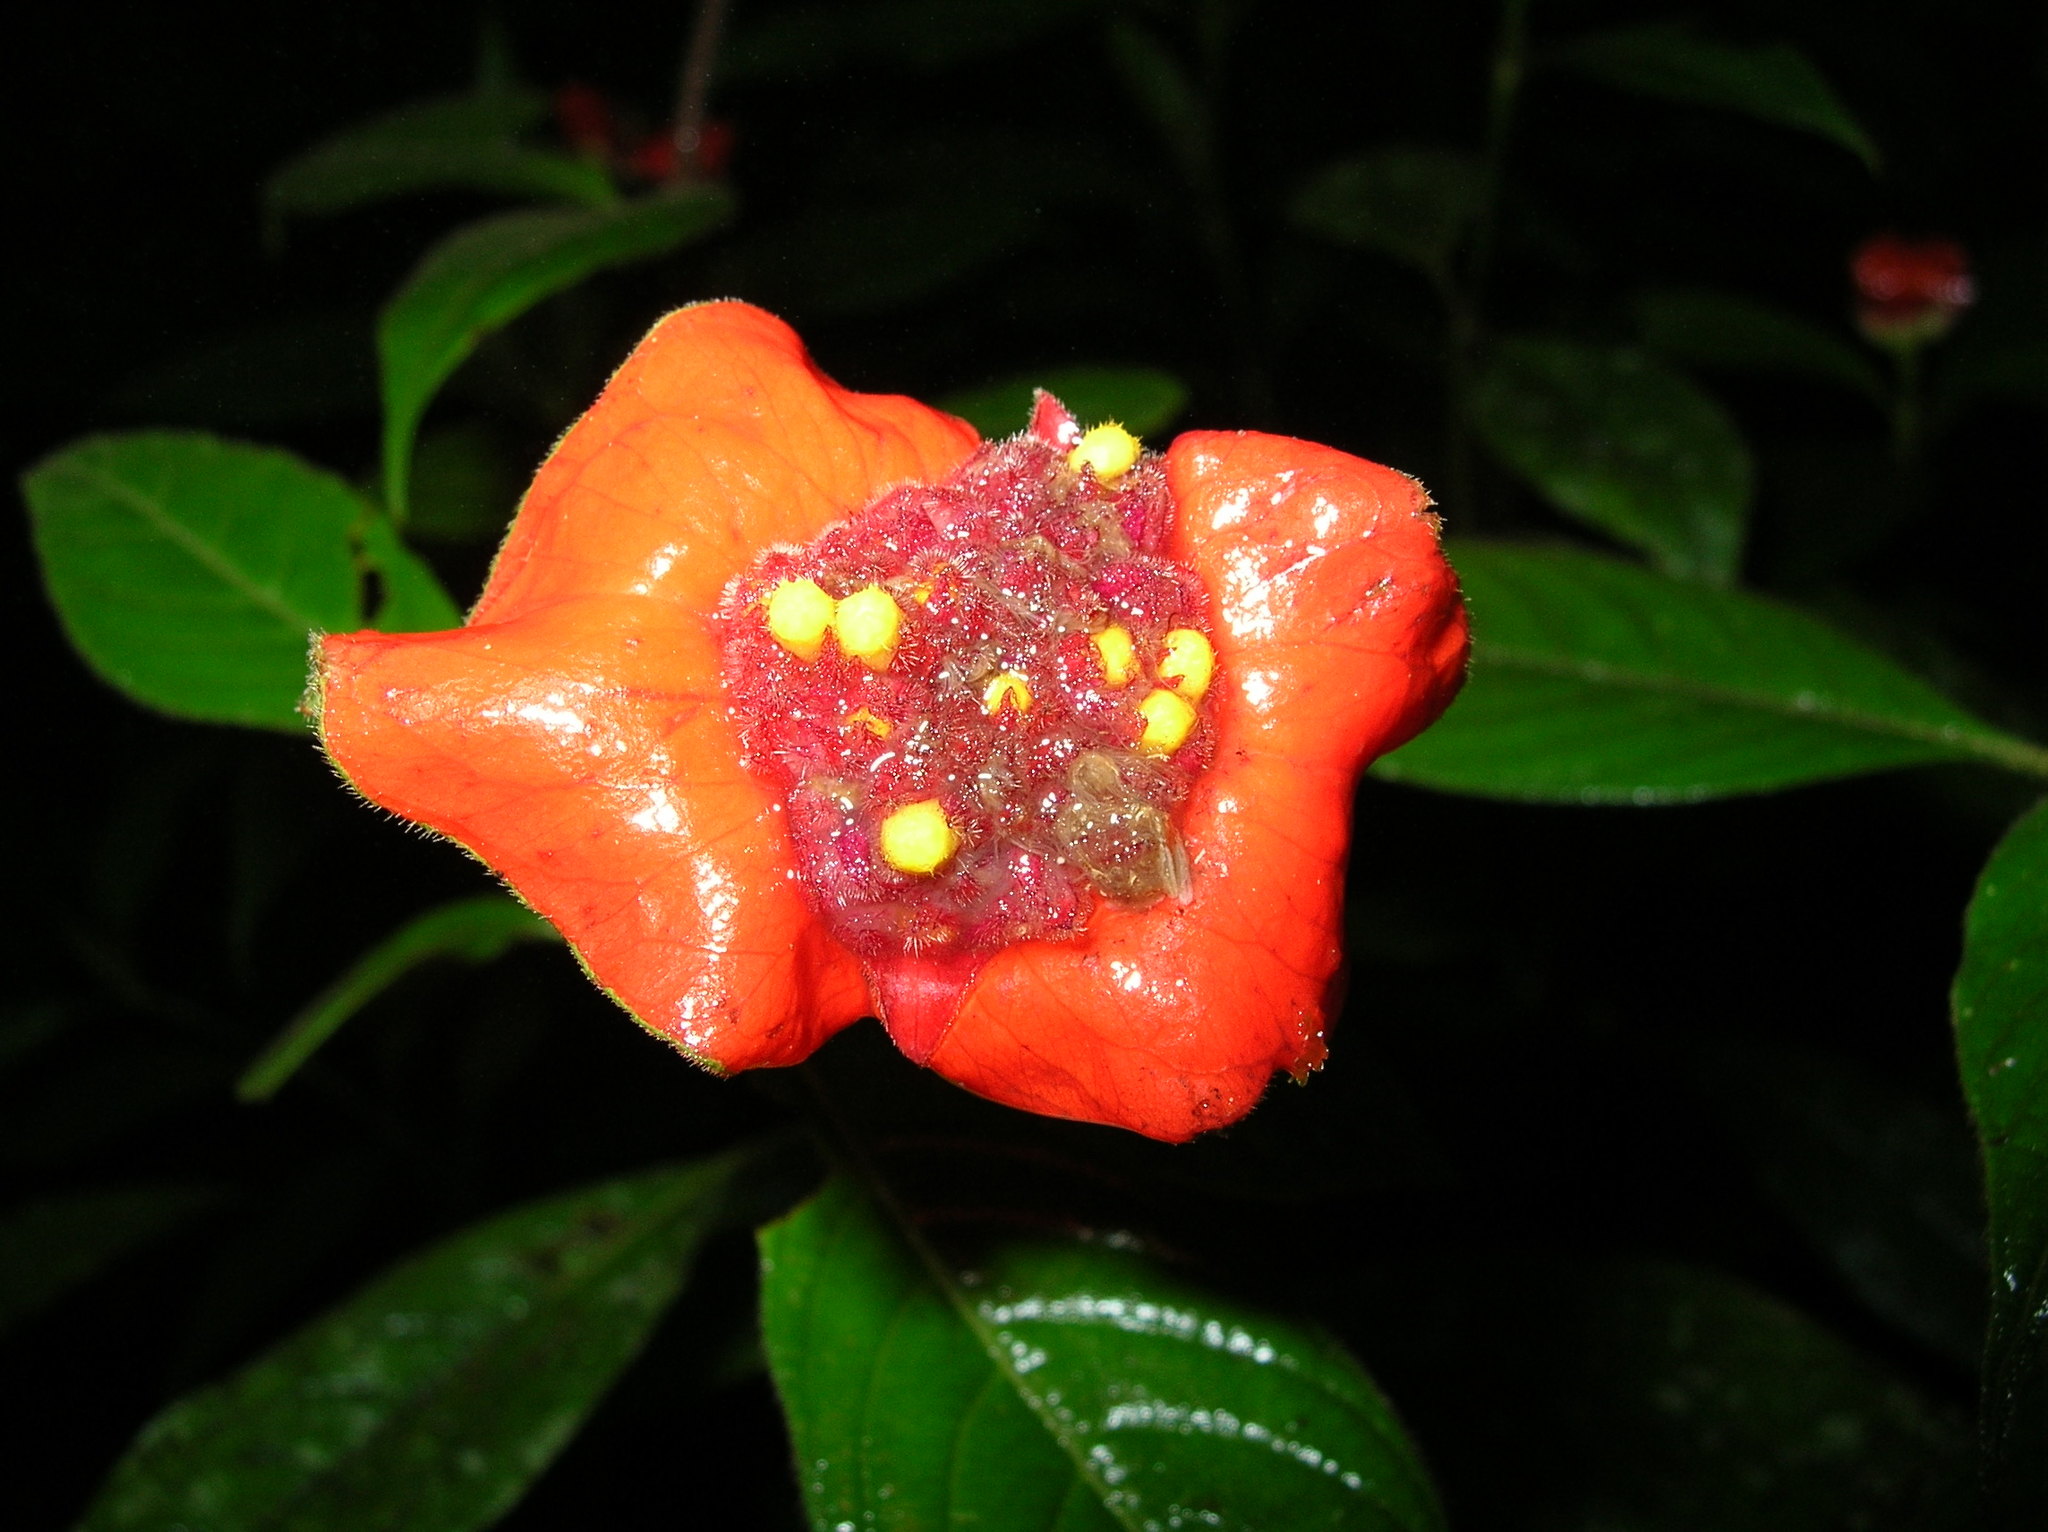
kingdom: Plantae
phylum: Tracheophyta
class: Magnoliopsida
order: Gentianales
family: Rubiaceae
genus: Palicourea
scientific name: Palicourea tomentosa
